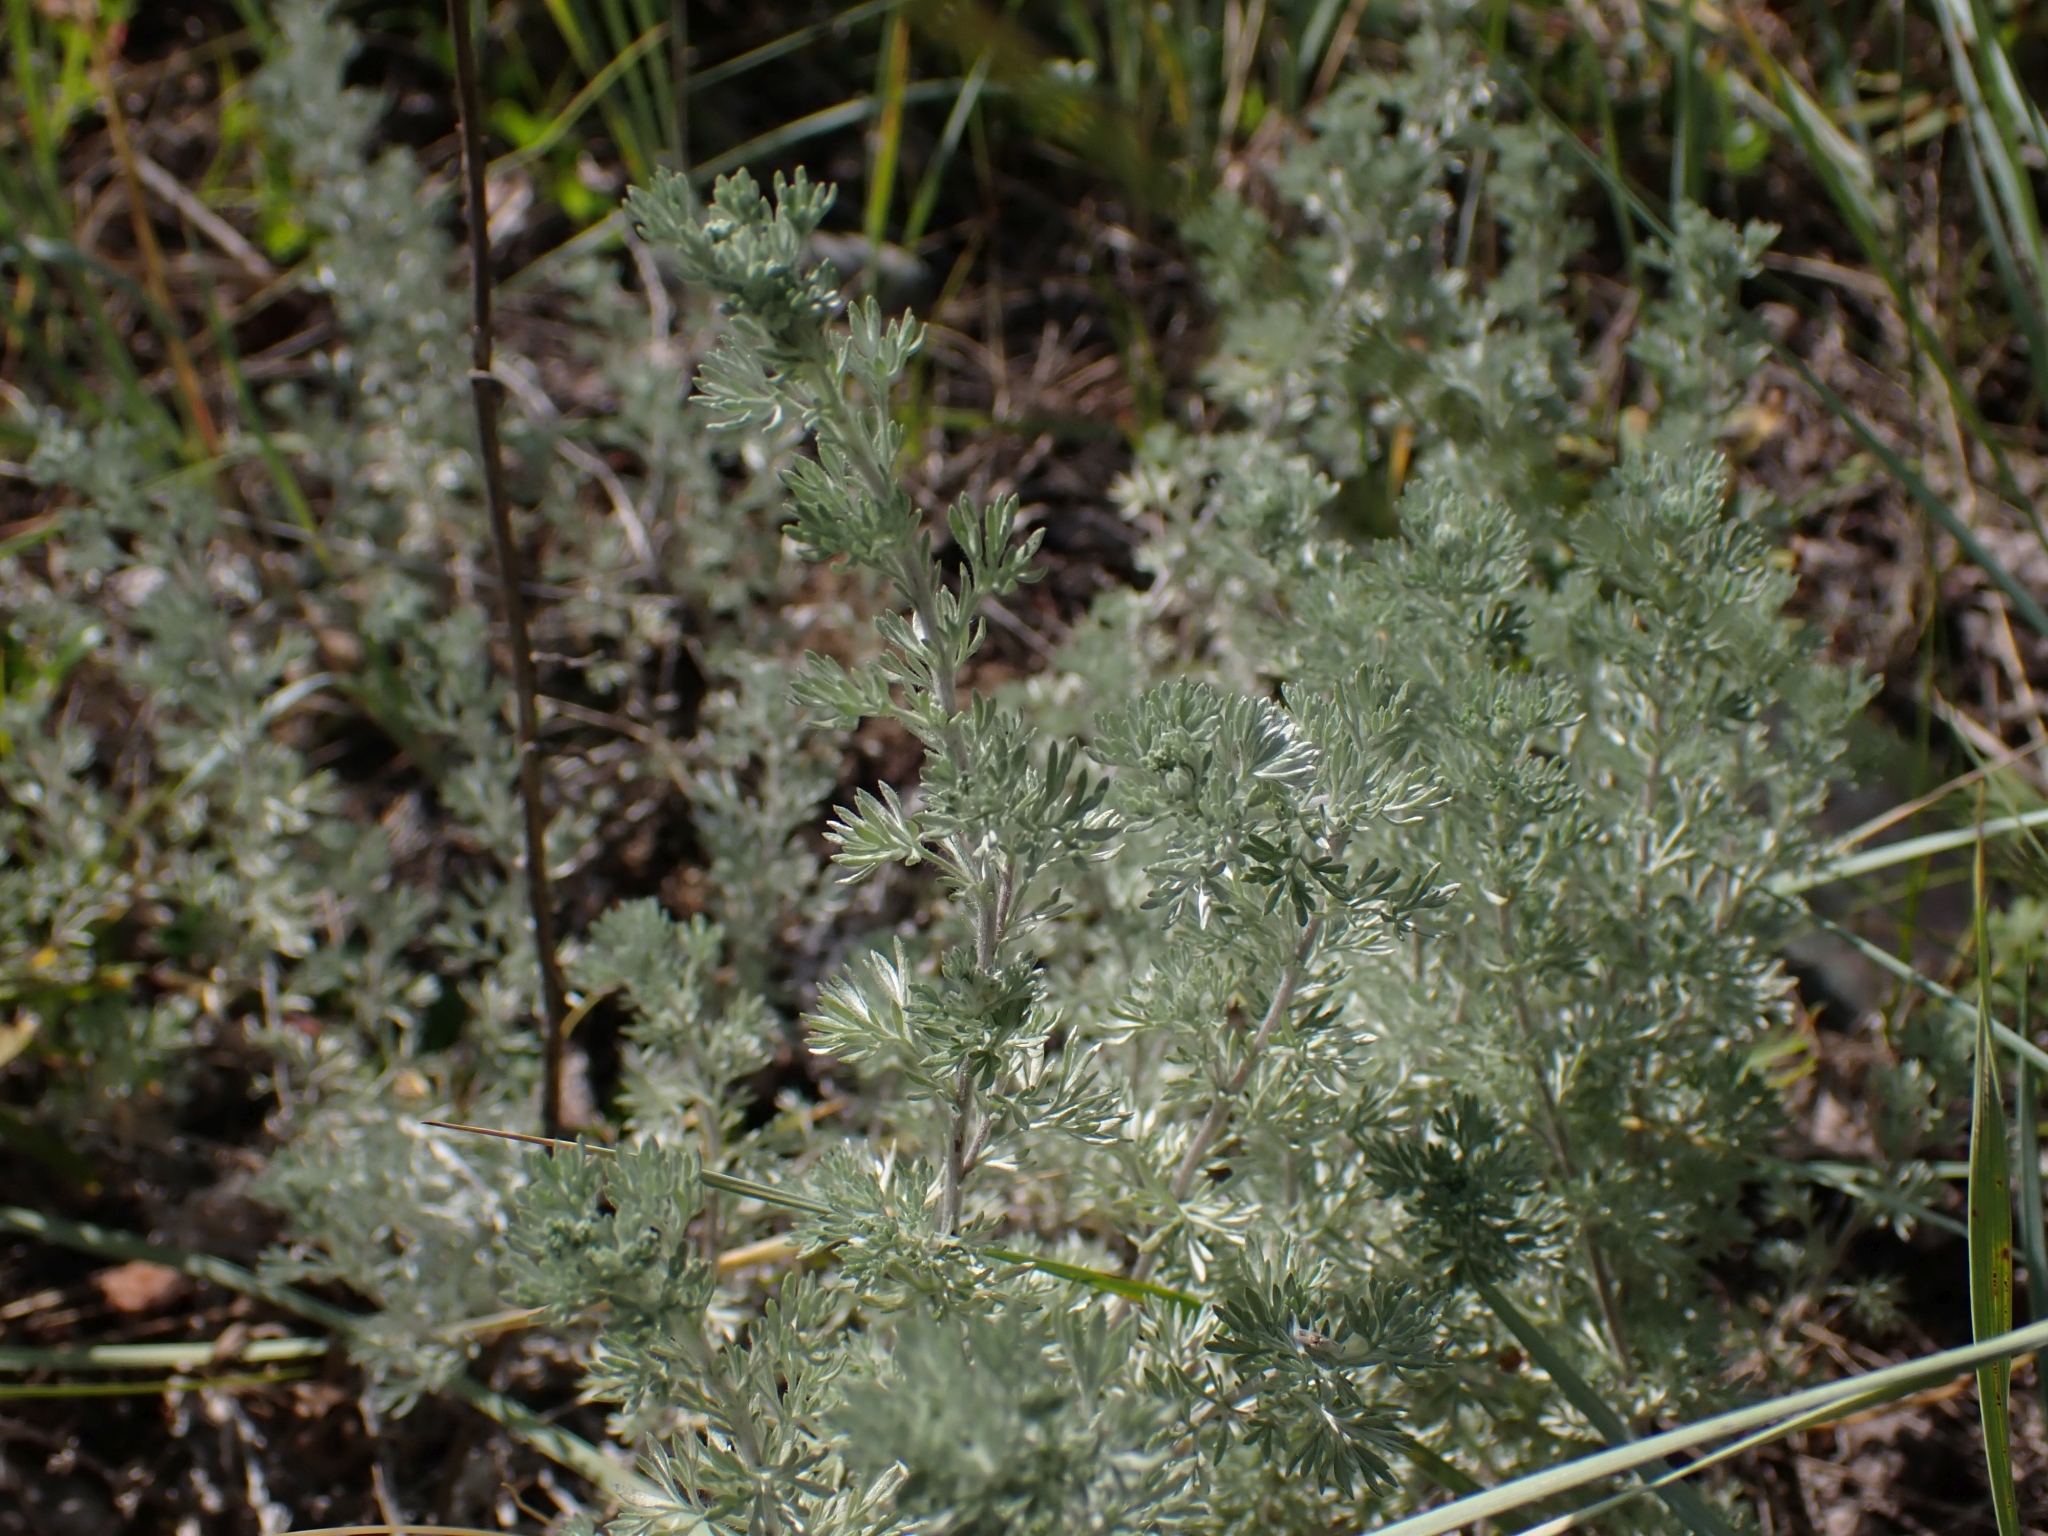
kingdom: Plantae
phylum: Tracheophyta
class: Magnoliopsida
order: Asterales
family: Asteraceae
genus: Artemisia
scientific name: Artemisia frigida
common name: Prairie sagewort
